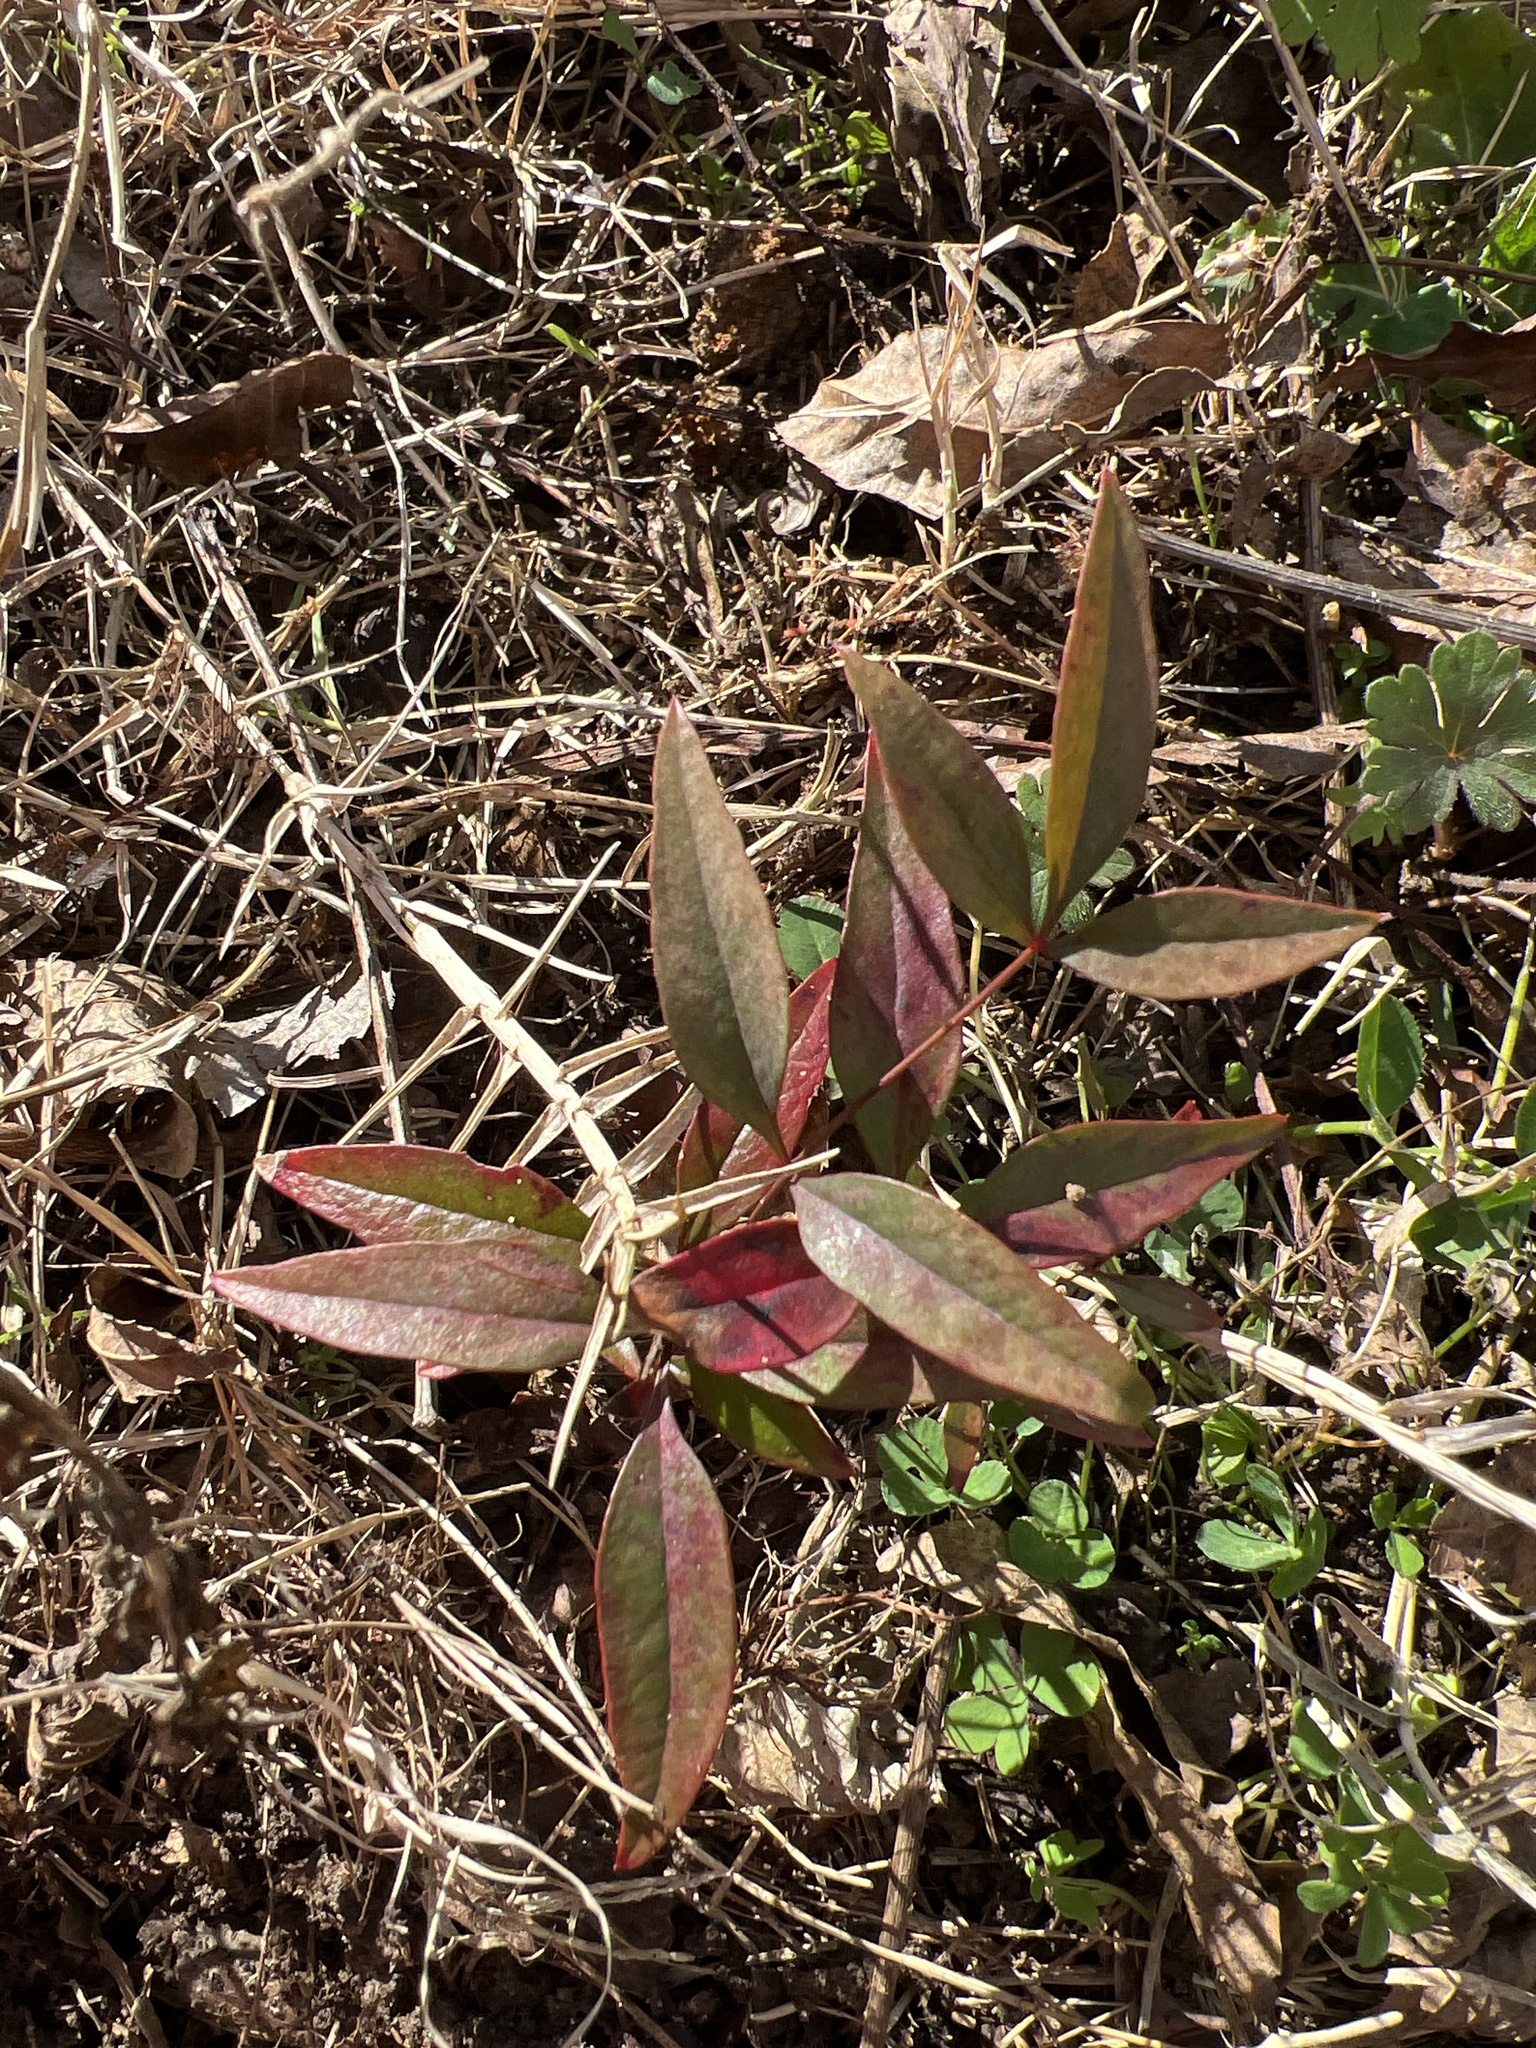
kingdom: Plantae
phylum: Tracheophyta
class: Magnoliopsida
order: Ranunculales
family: Berberidaceae
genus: Nandina
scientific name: Nandina domestica
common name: Sacred bamboo
